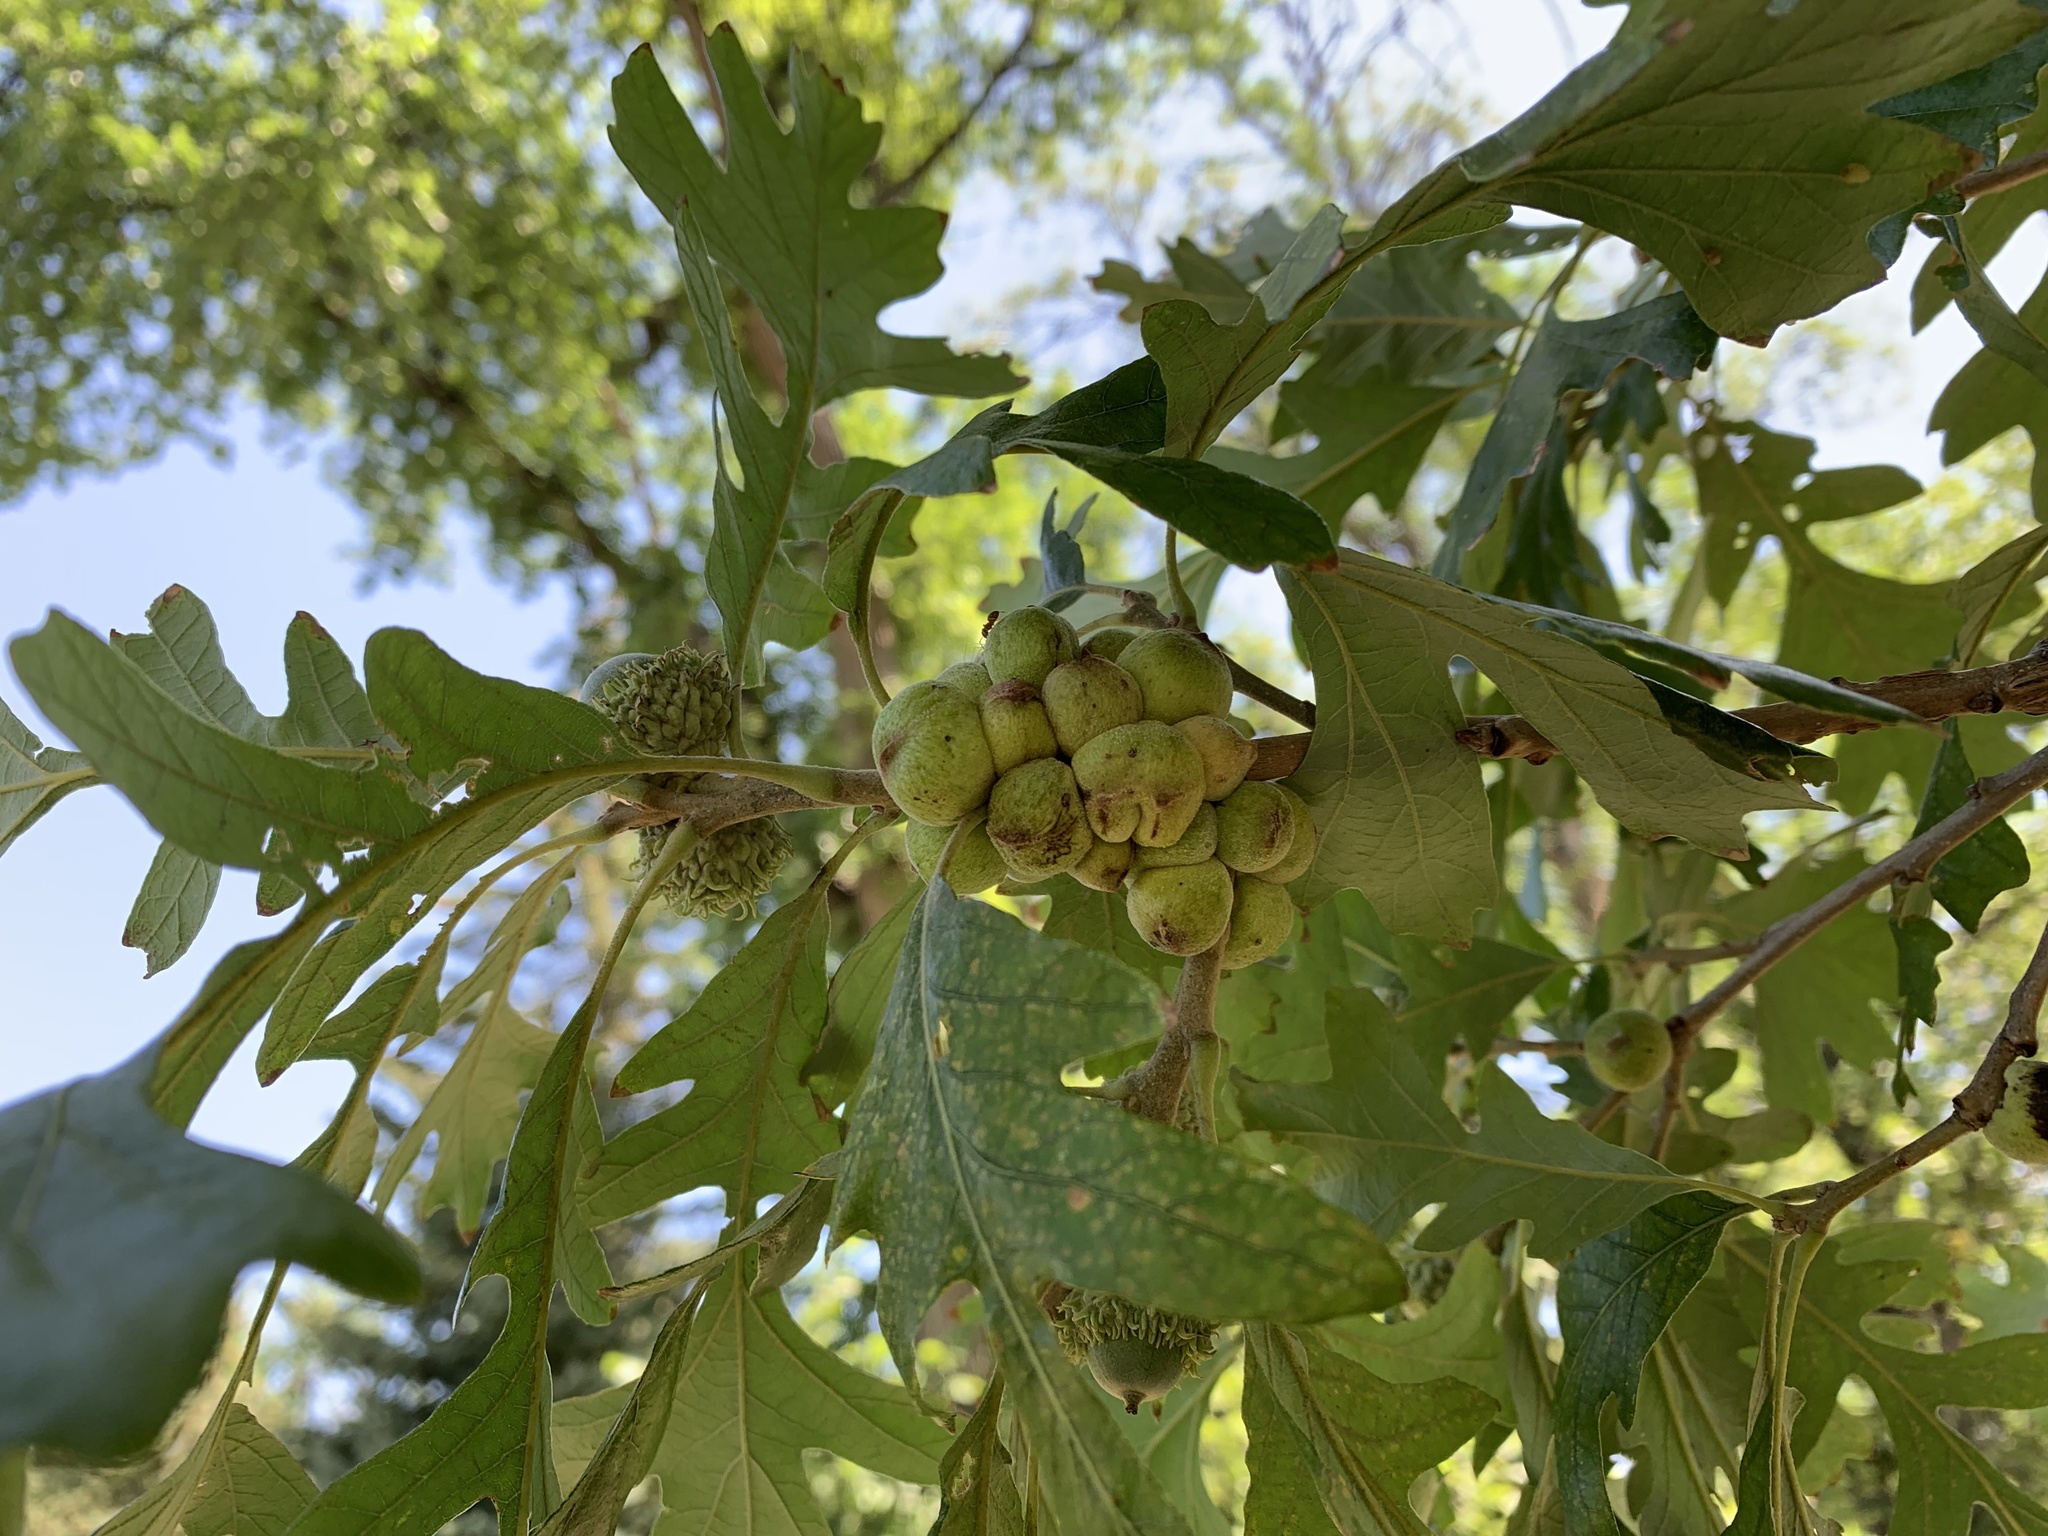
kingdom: Animalia
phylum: Arthropoda
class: Insecta
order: Hymenoptera
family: Cynipidae
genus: Disholcaspis
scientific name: Disholcaspis
